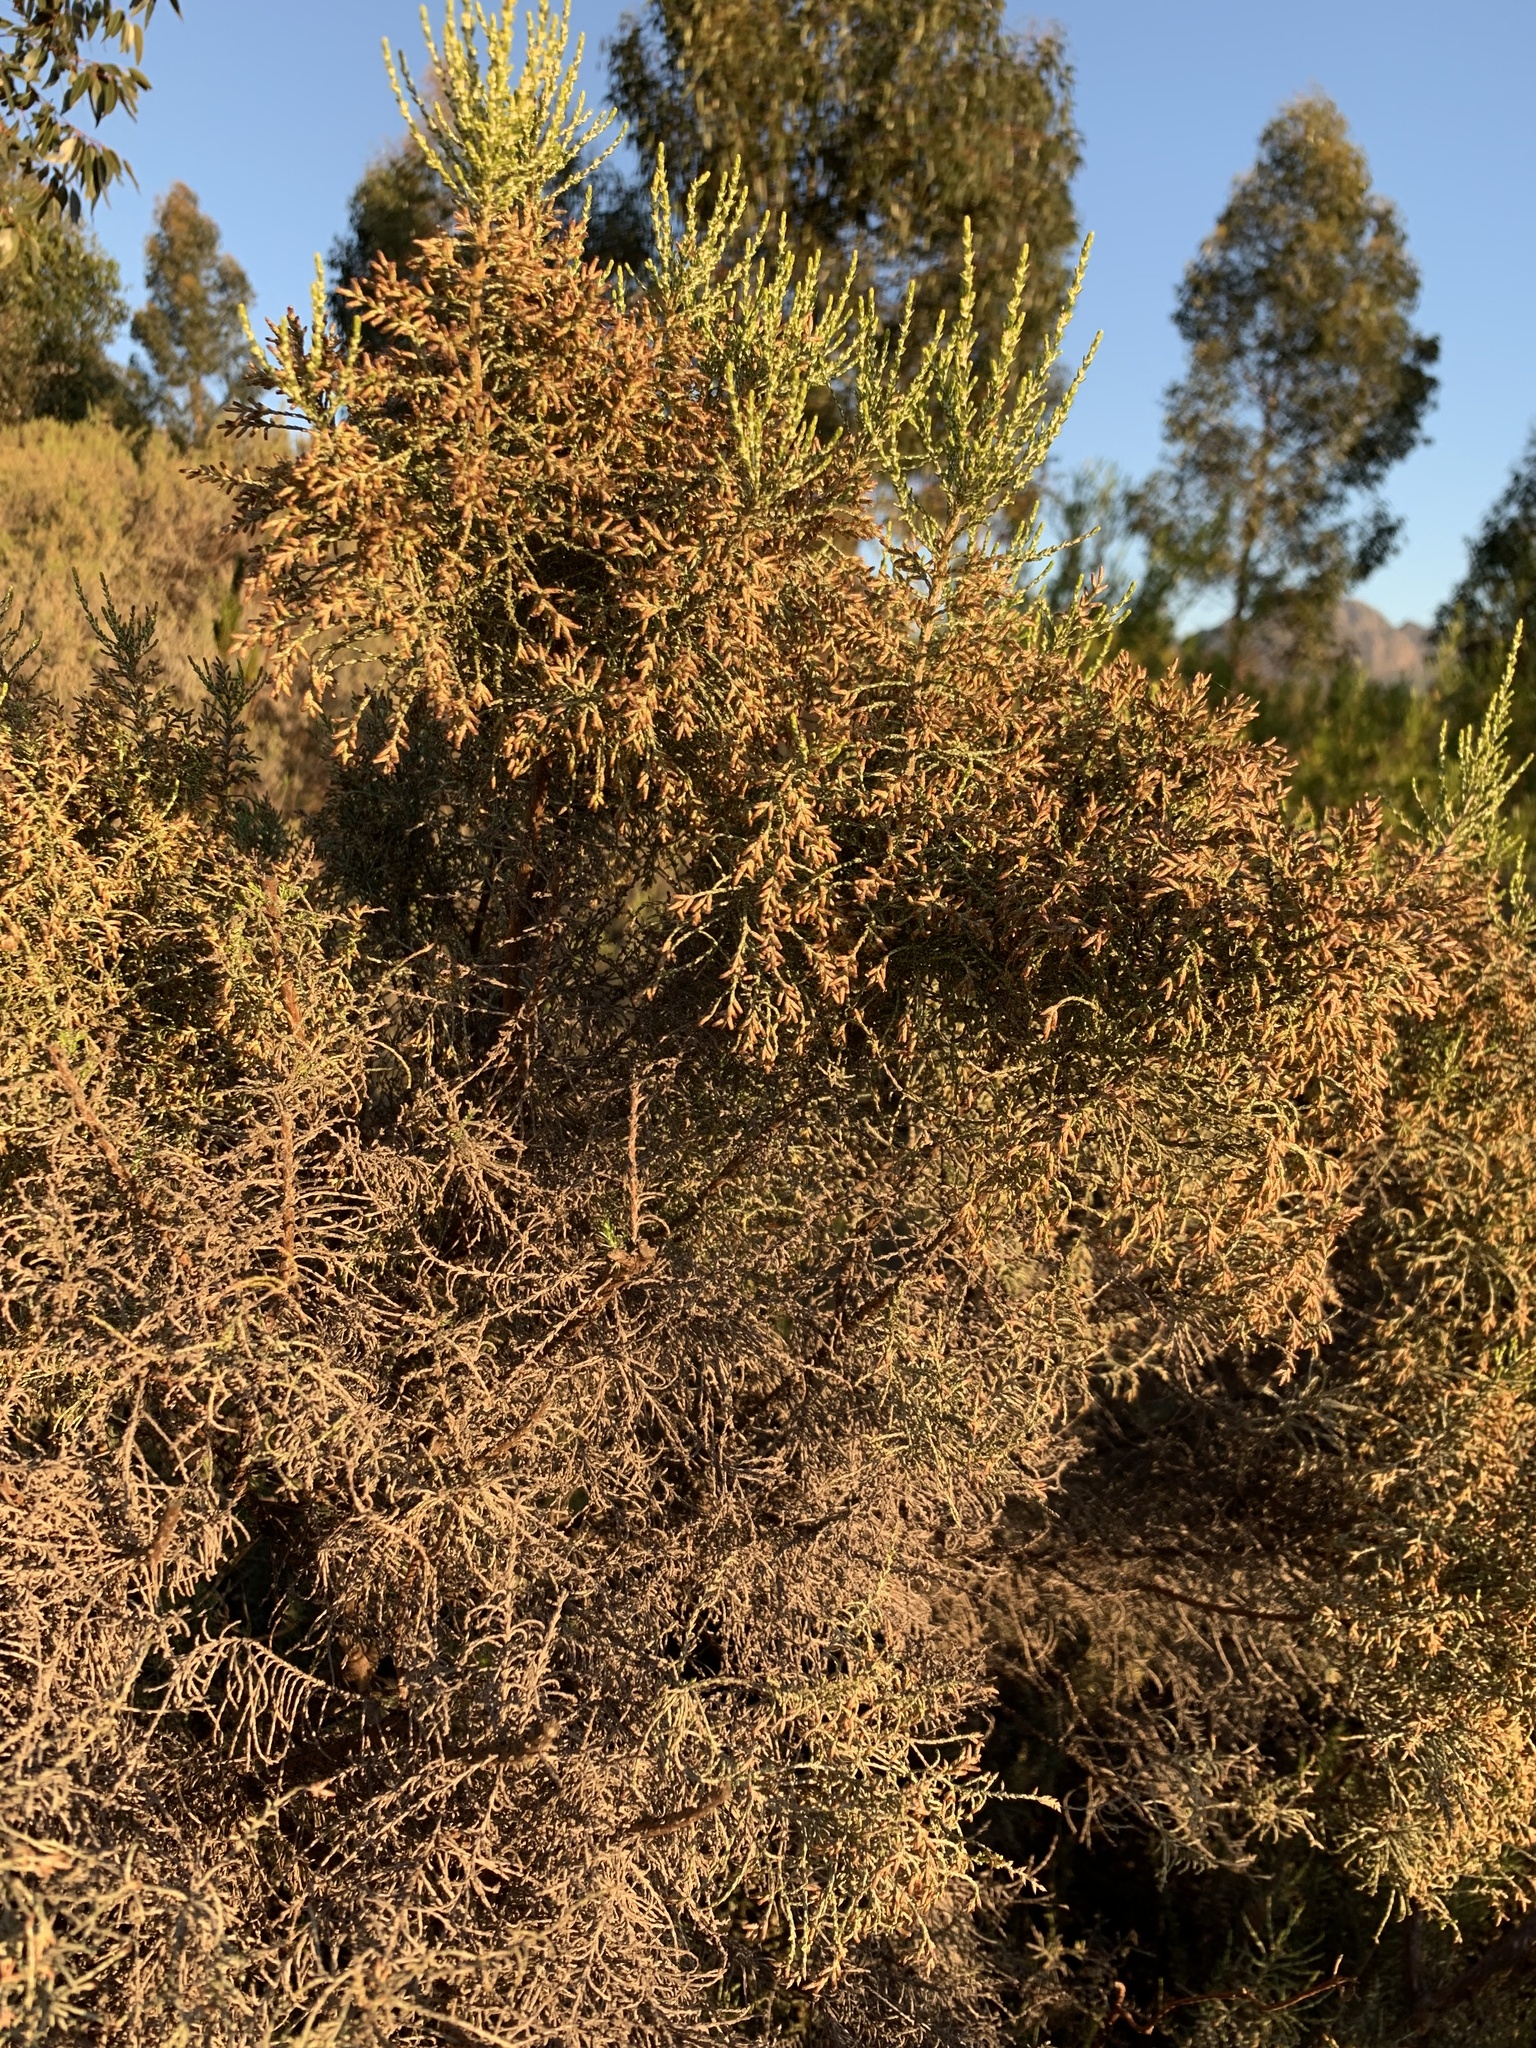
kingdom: Plantae
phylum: Tracheophyta
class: Magnoliopsida
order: Asterales
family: Asteraceae
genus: Dicerothamnus
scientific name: Dicerothamnus rhinocerotis
